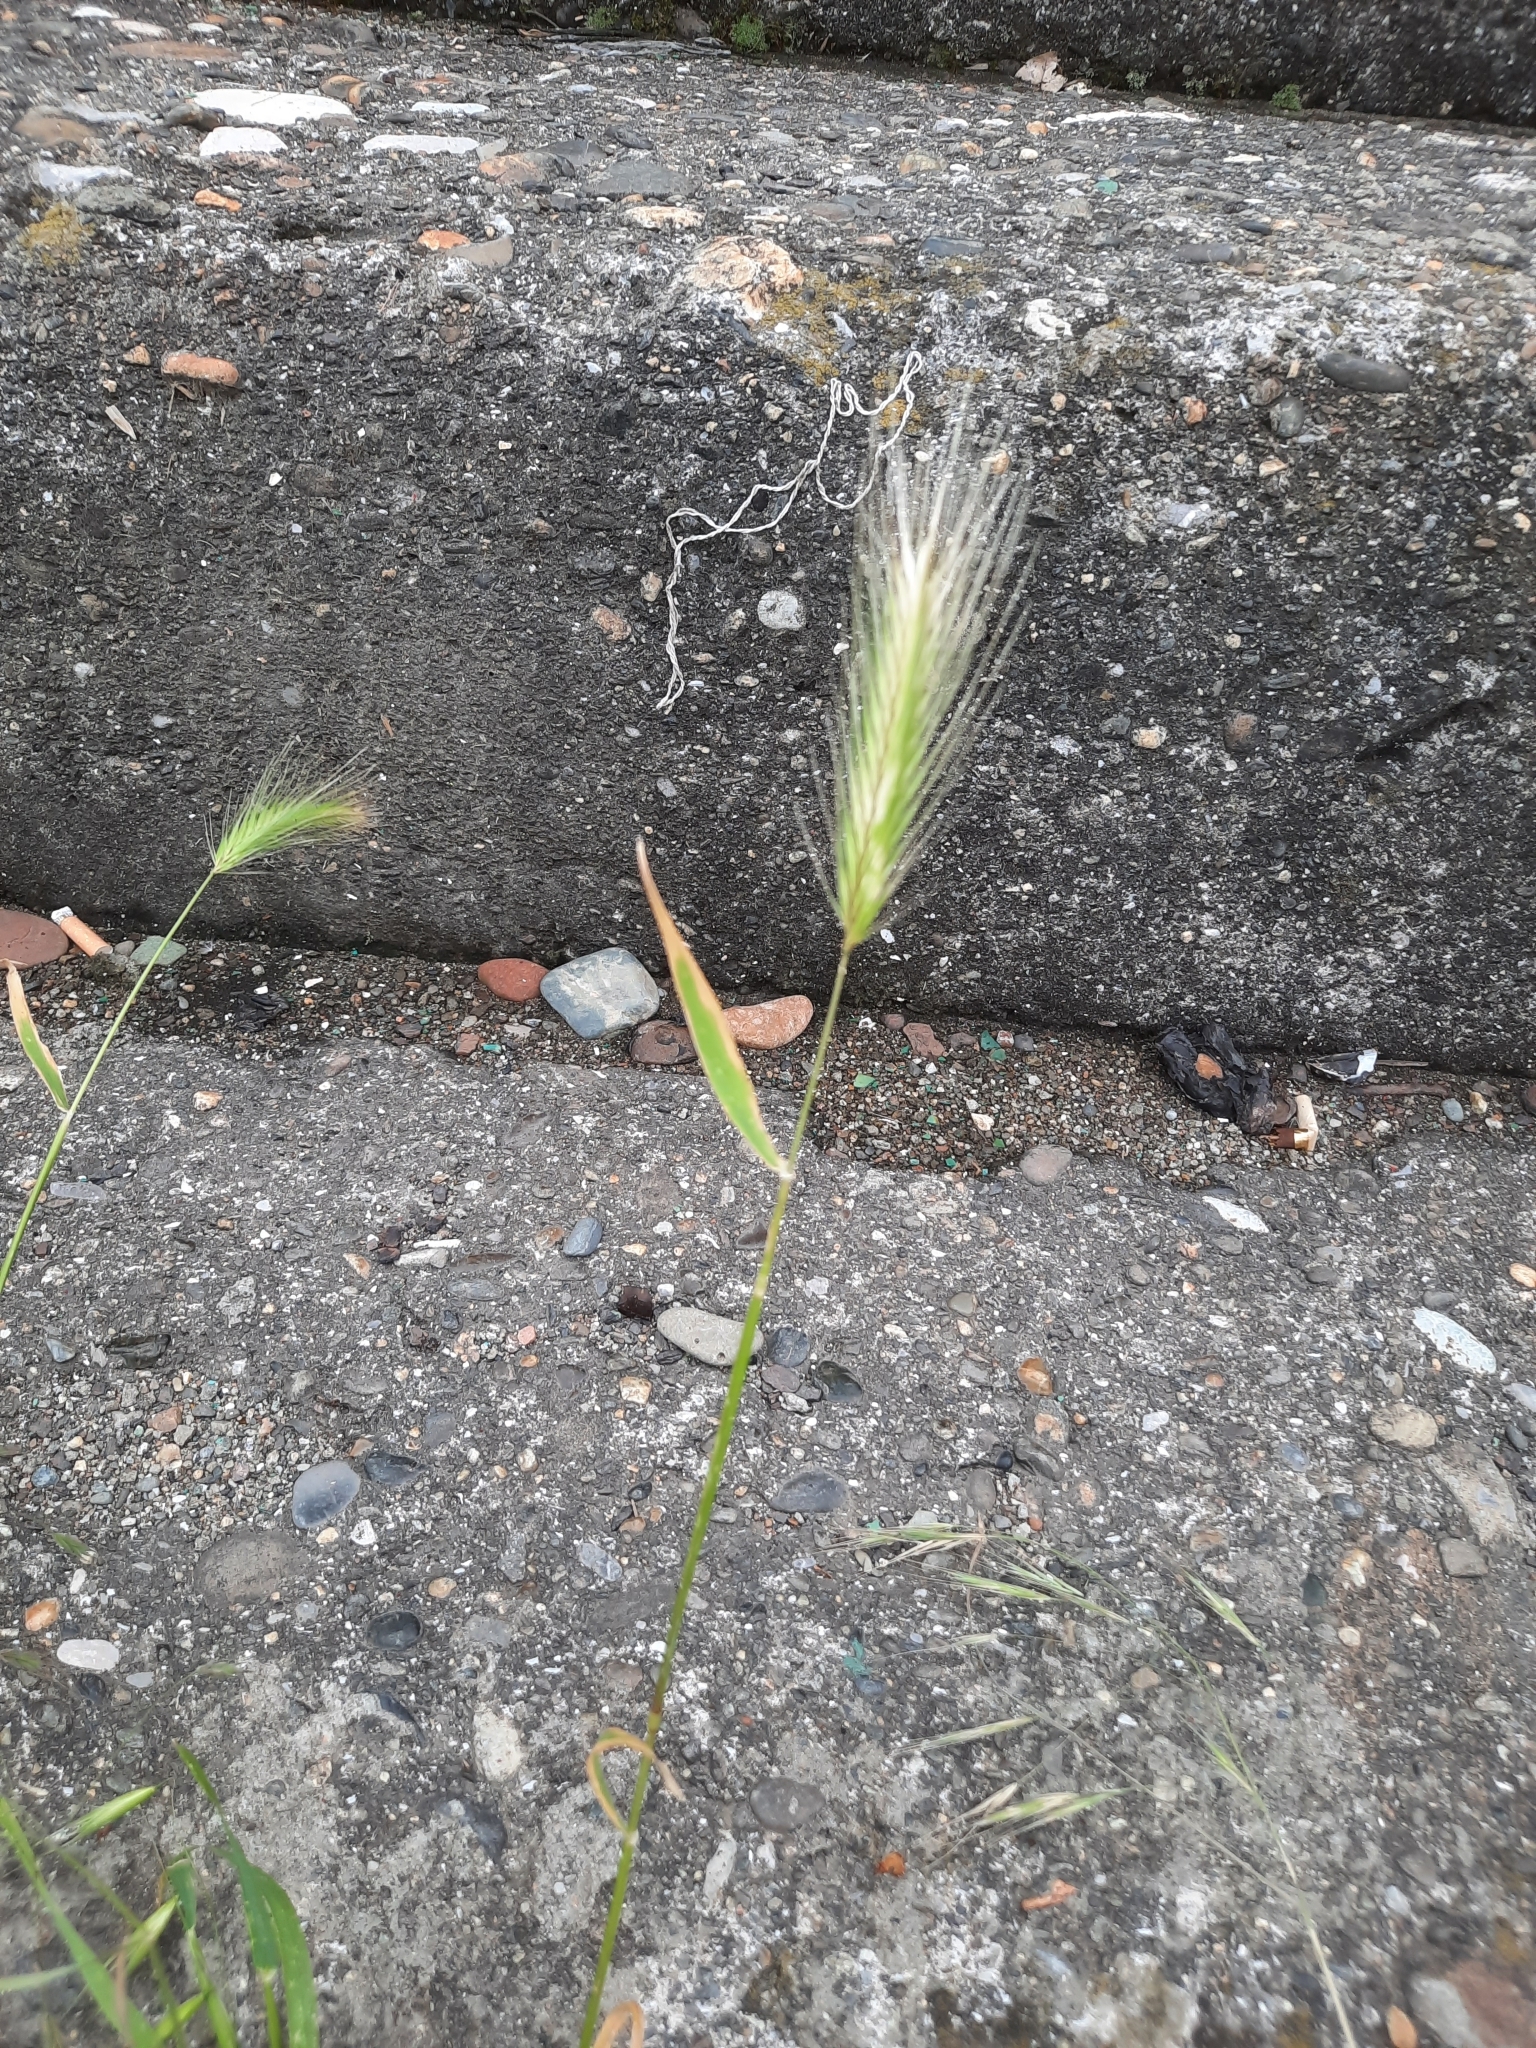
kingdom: Plantae
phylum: Tracheophyta
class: Liliopsida
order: Poales
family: Poaceae
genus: Hordeum
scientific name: Hordeum murinum
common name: Wall barley
